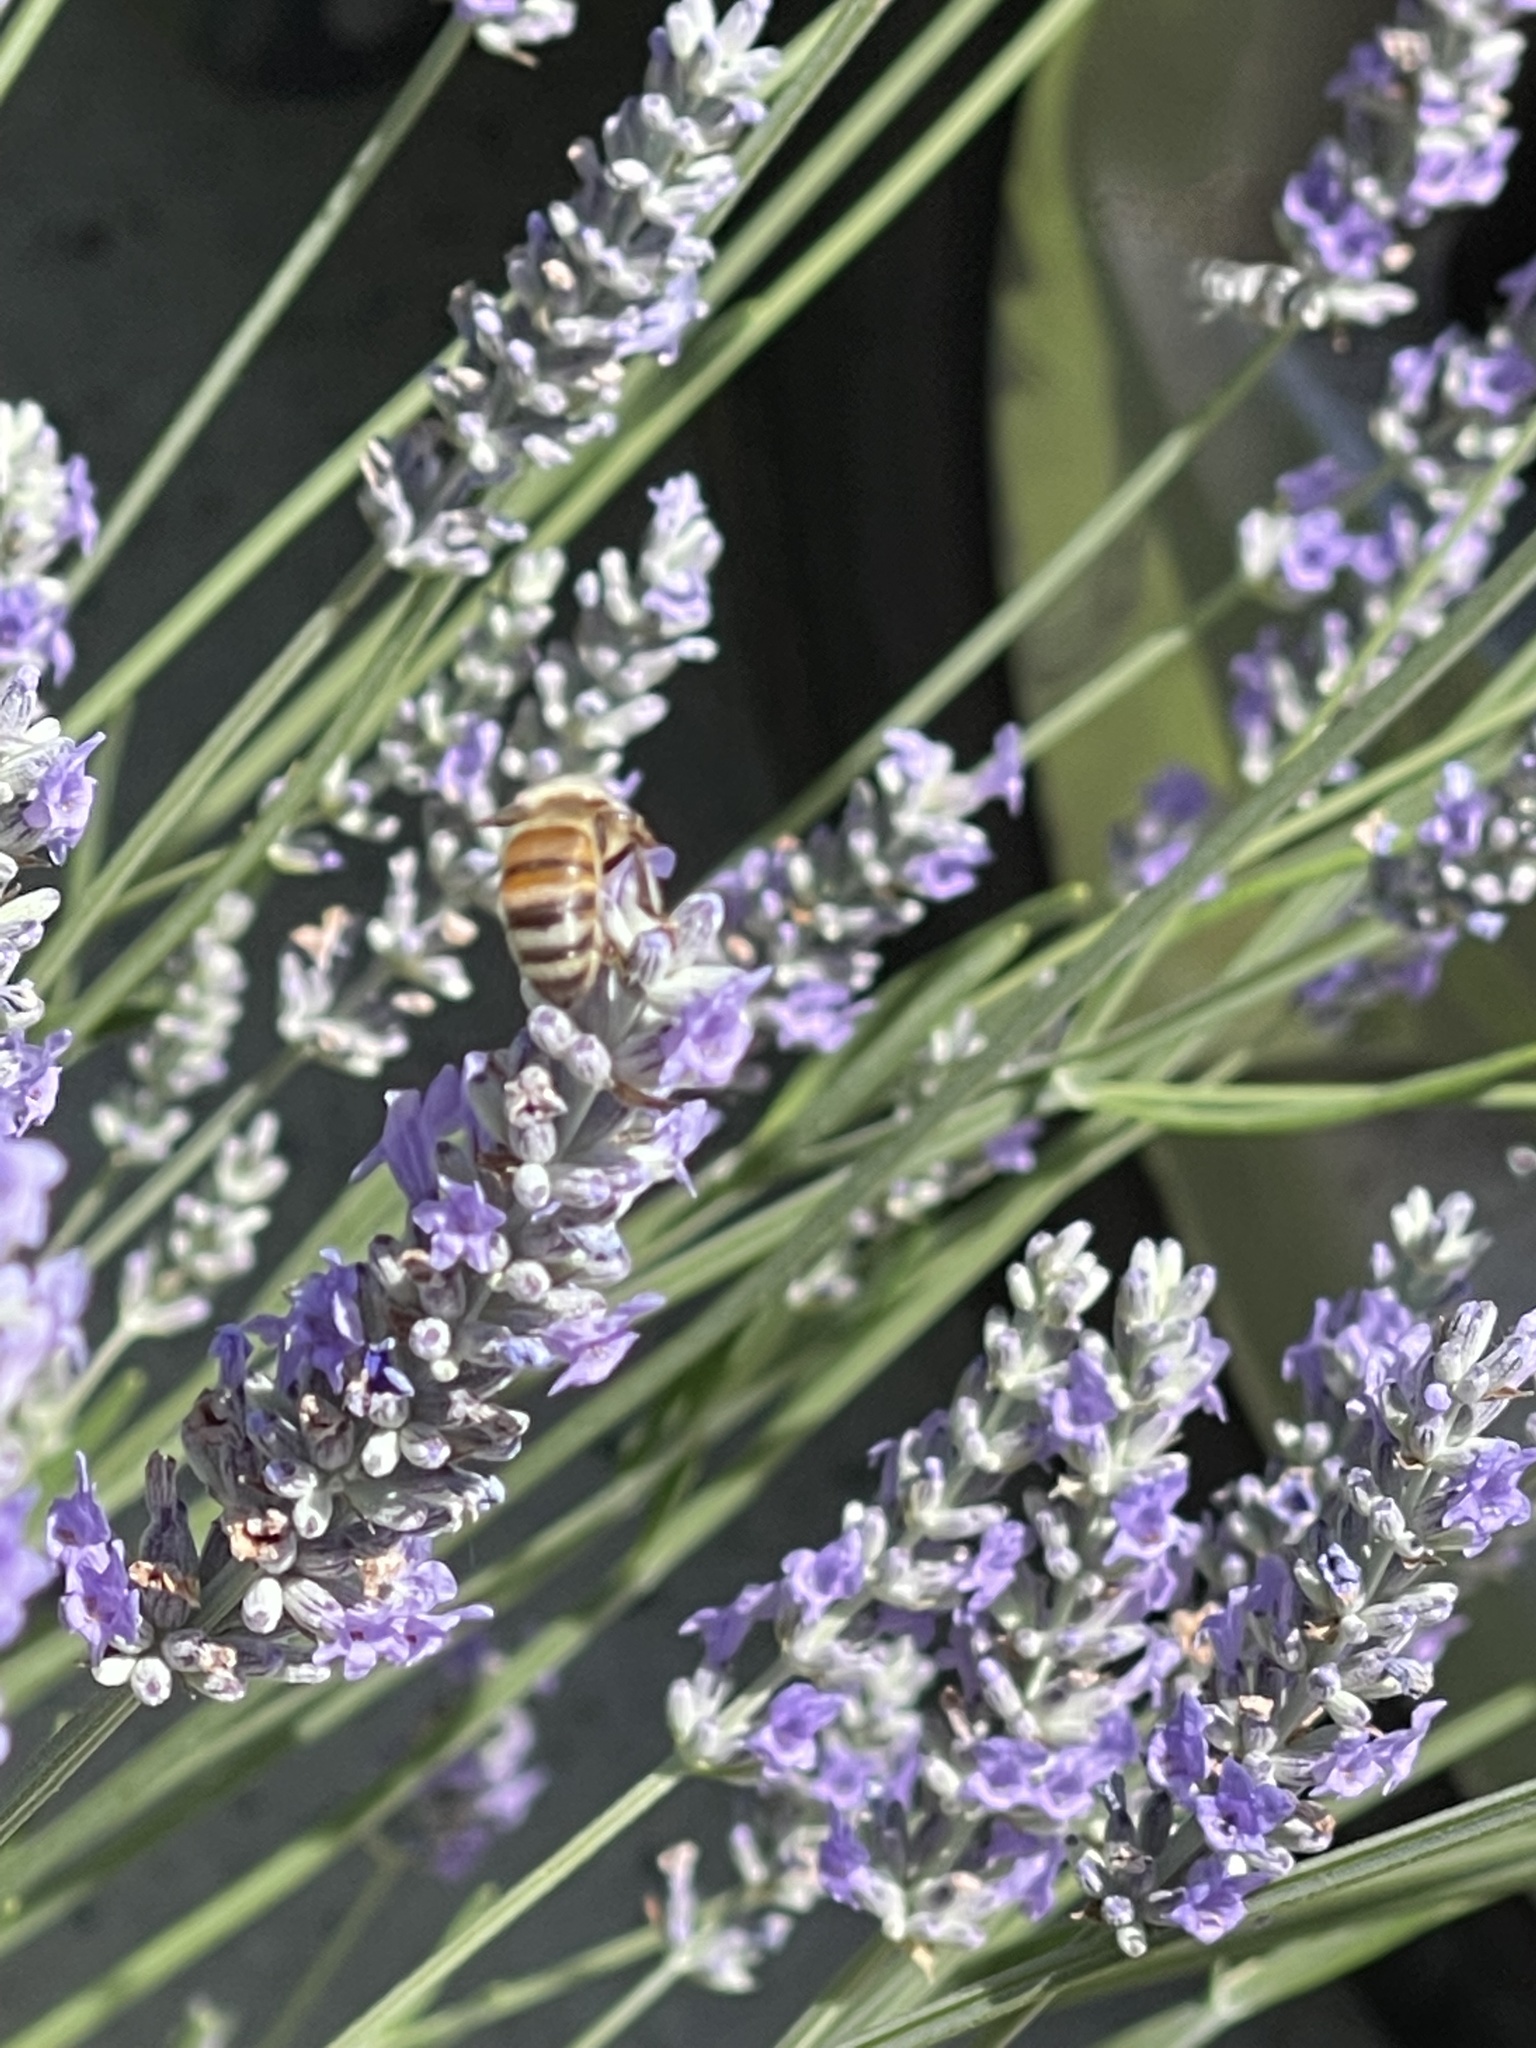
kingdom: Animalia
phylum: Arthropoda
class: Insecta
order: Hymenoptera
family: Apidae
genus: Apis
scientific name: Apis mellifera
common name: Honey bee
